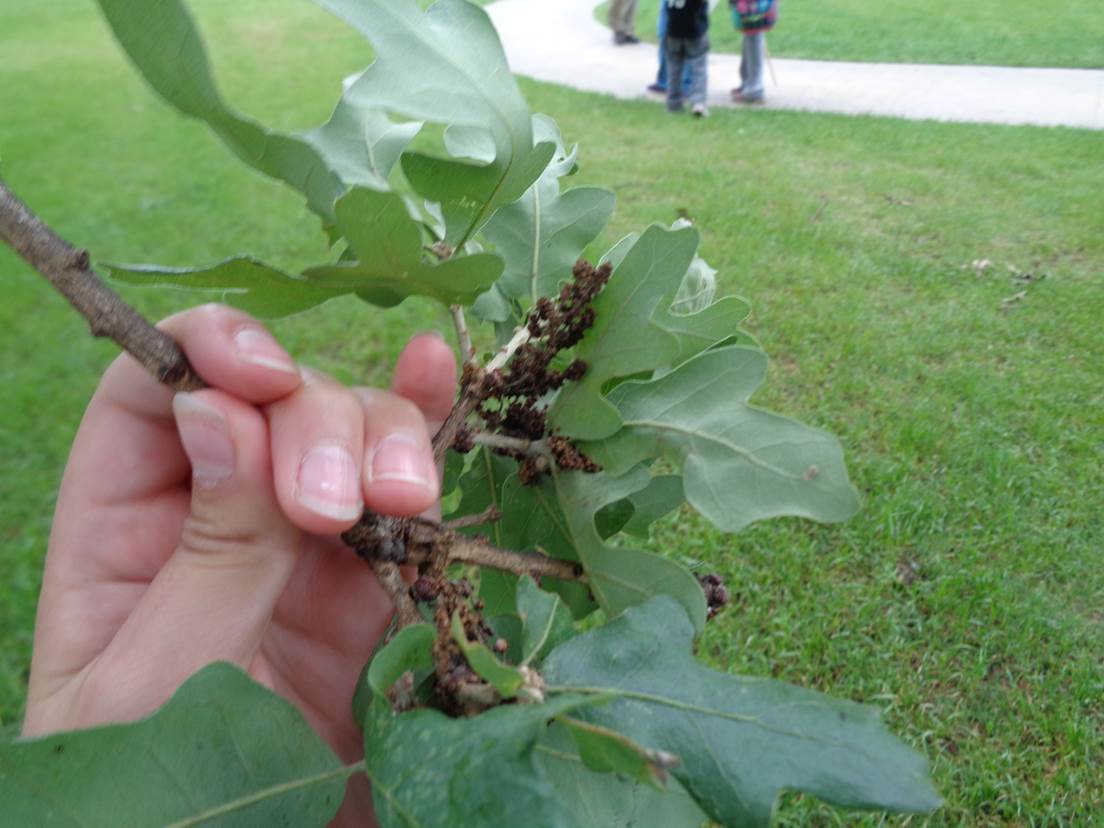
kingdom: Plantae
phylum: Tracheophyta
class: Magnoliopsida
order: Fagales
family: Fagaceae
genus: Quercus
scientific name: Quercus stellata
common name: Post oak
